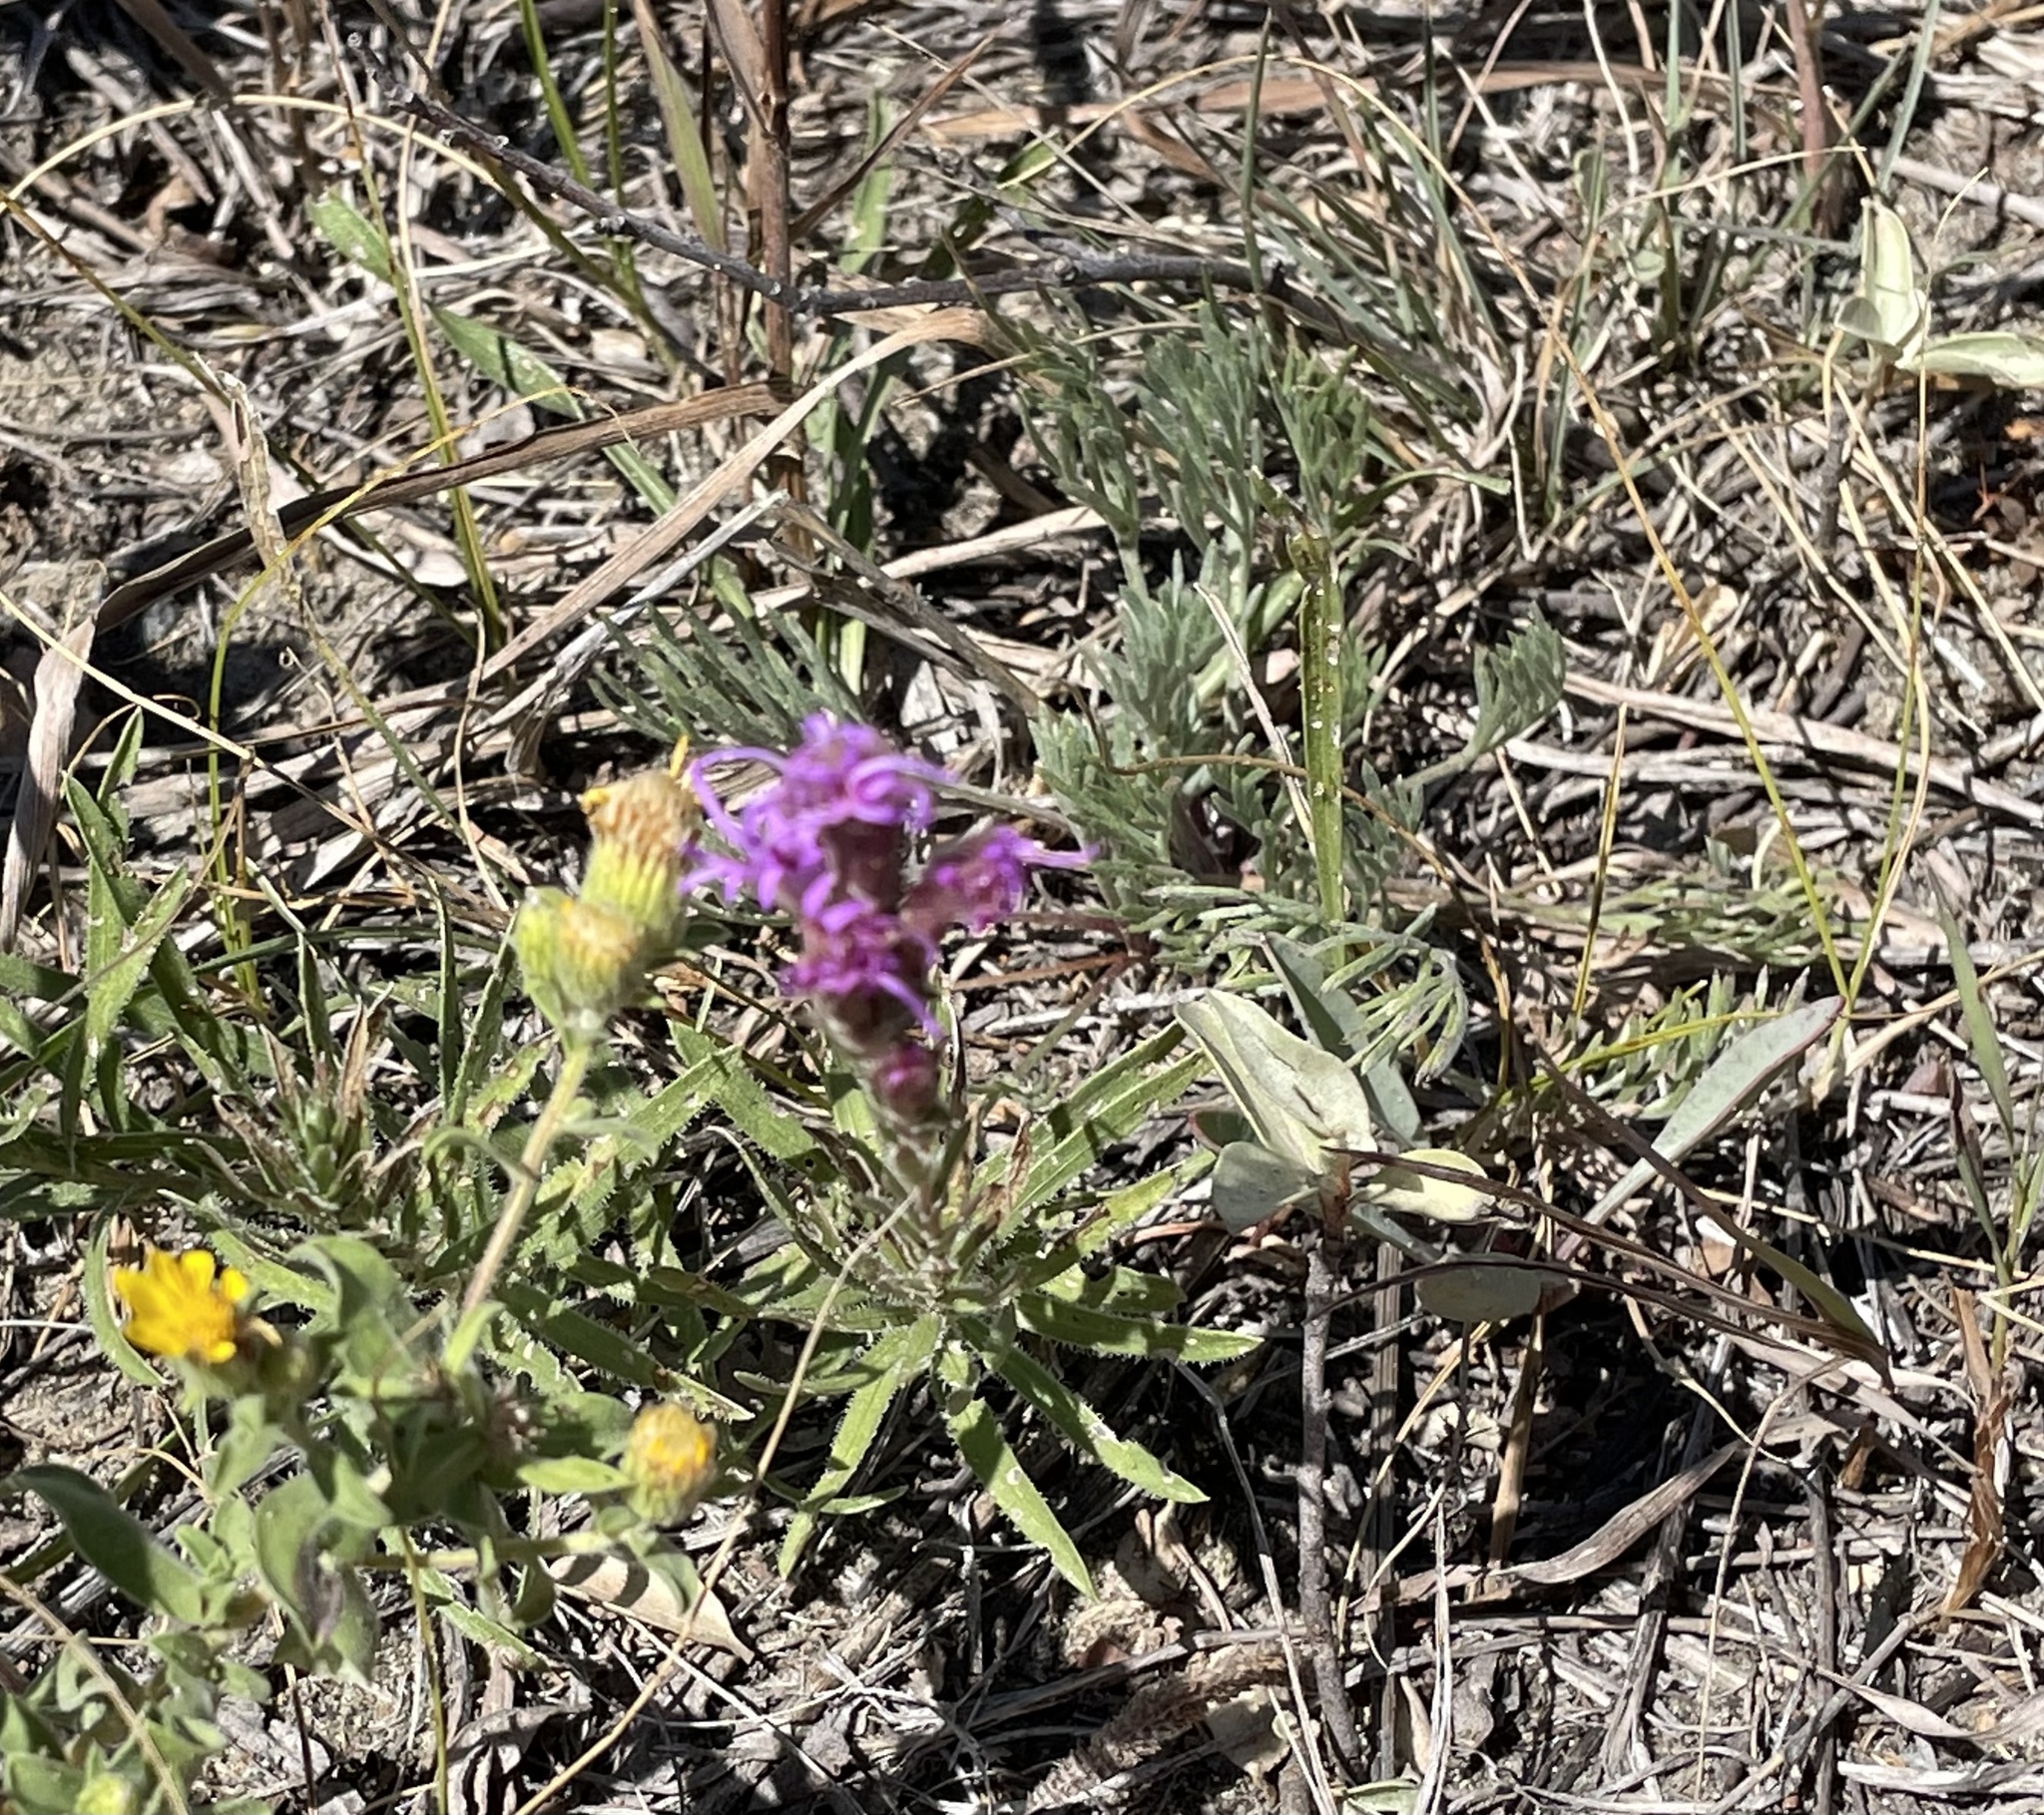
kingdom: Plantae
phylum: Tracheophyta
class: Magnoliopsida
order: Asterales
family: Asteraceae
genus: Liatris
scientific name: Liatris punctata
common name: Dotted gayfeather
